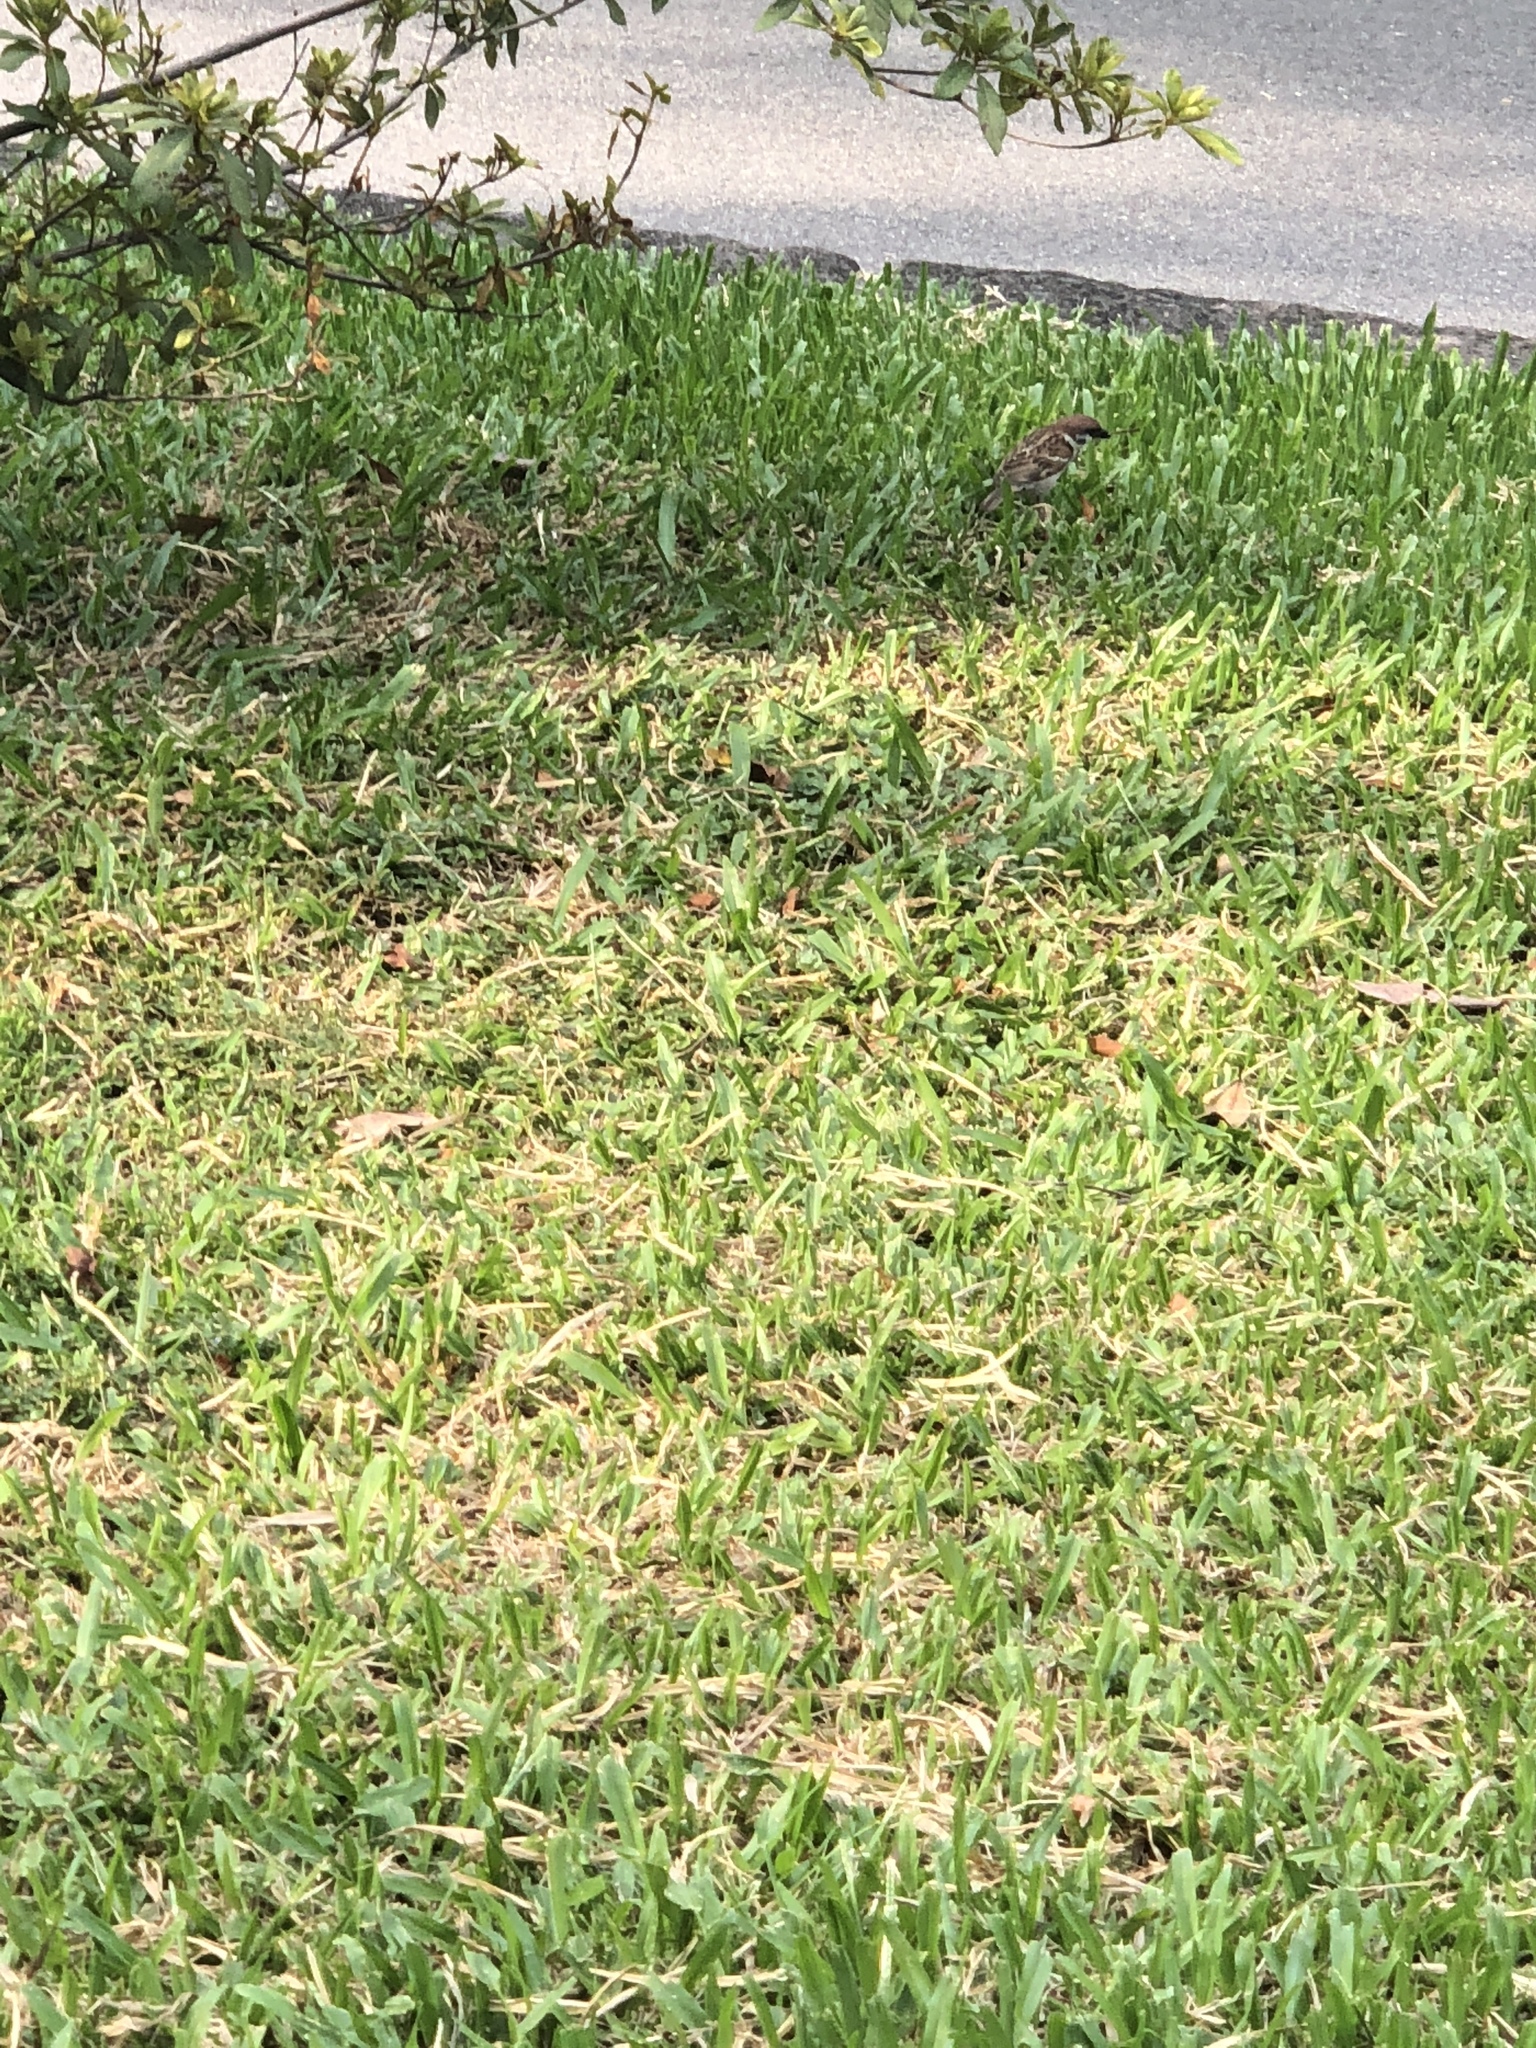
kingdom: Animalia
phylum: Chordata
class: Aves
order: Passeriformes
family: Passeridae
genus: Passer
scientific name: Passer montanus
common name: Eurasian tree sparrow
